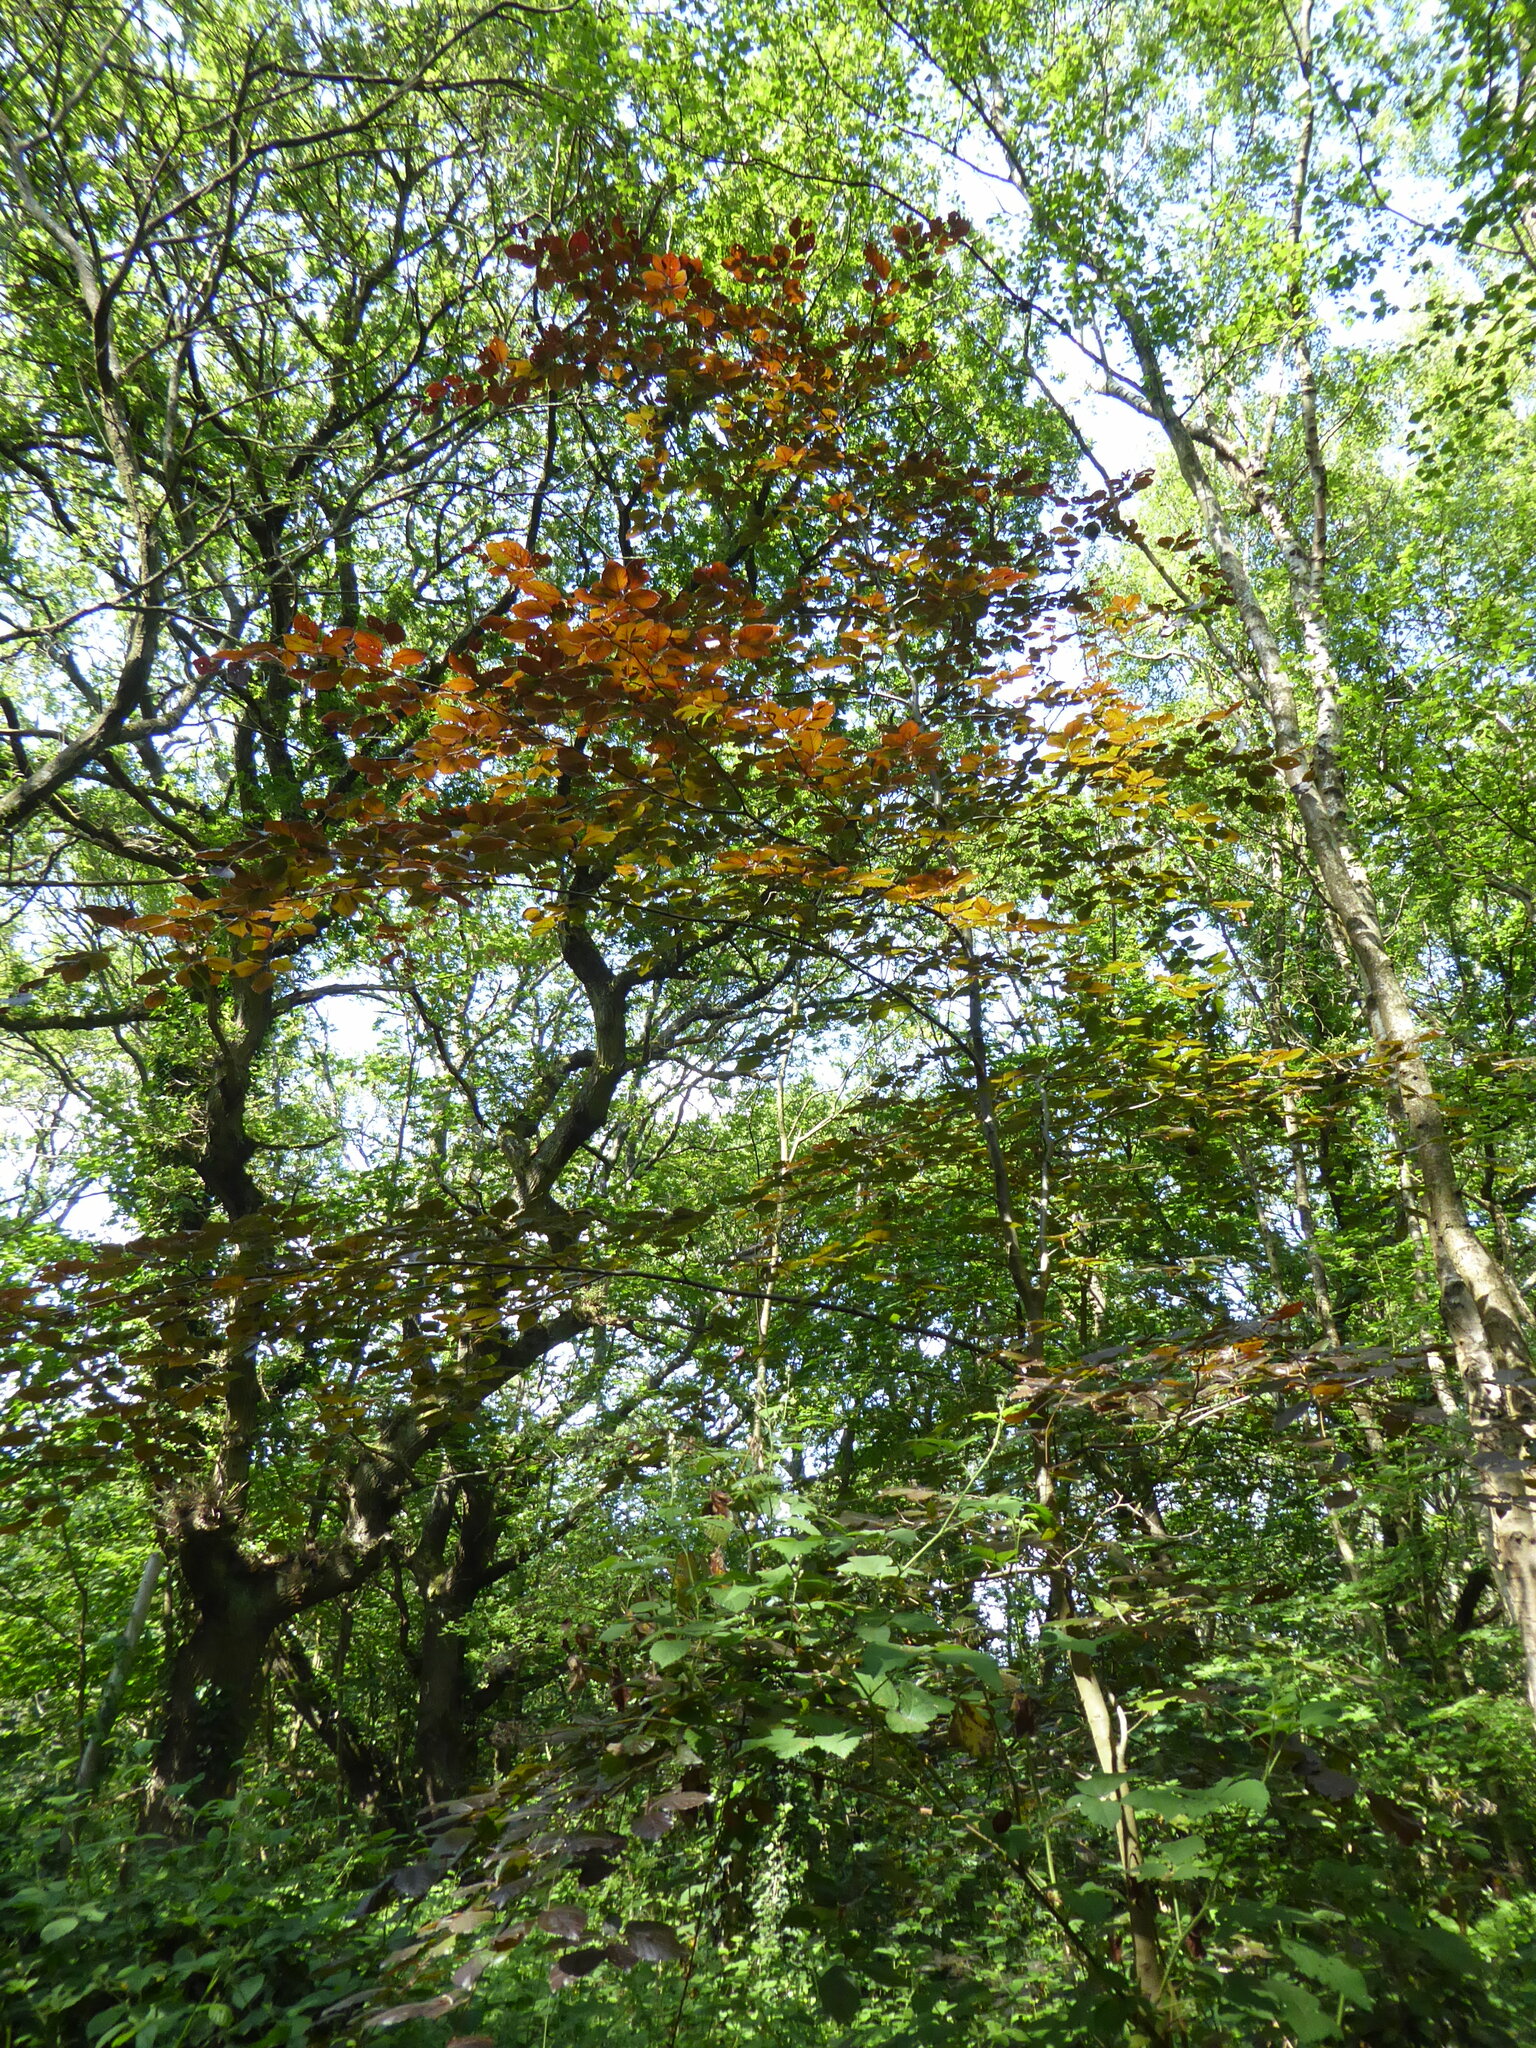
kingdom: Plantae
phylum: Tracheophyta
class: Magnoliopsida
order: Fagales
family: Fagaceae
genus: Fagus
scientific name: Fagus sylvatica
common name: Beech
